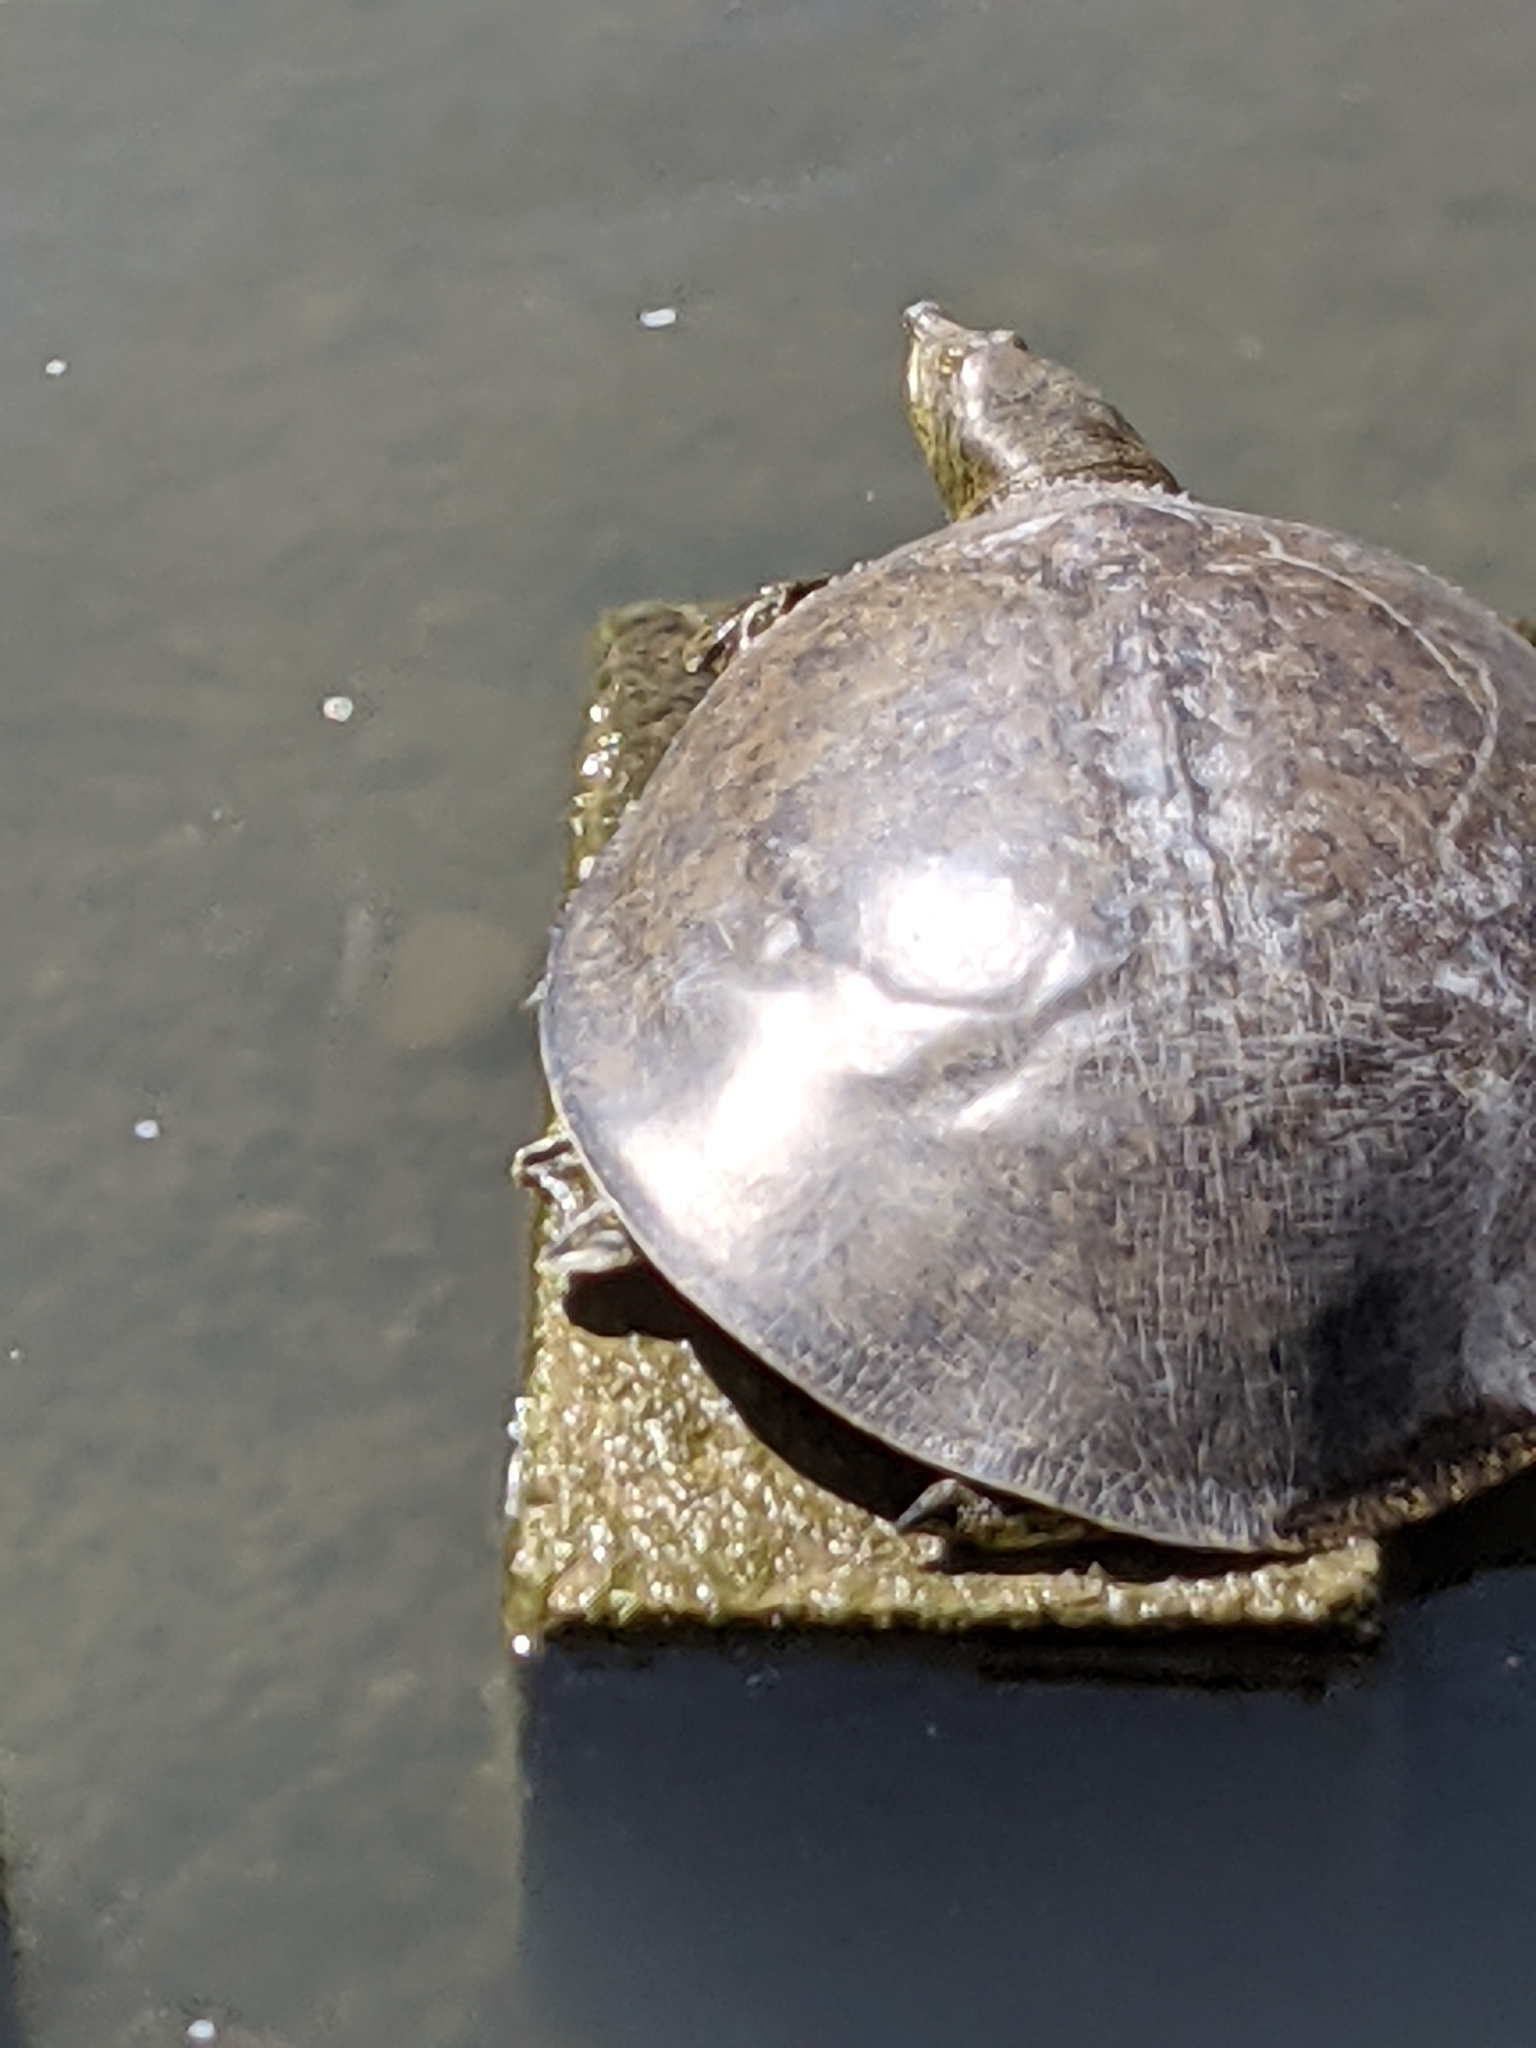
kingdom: Animalia
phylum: Chordata
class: Testudines
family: Trionychidae
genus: Apalone
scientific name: Apalone spinifera
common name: Spiny softshell turtle
